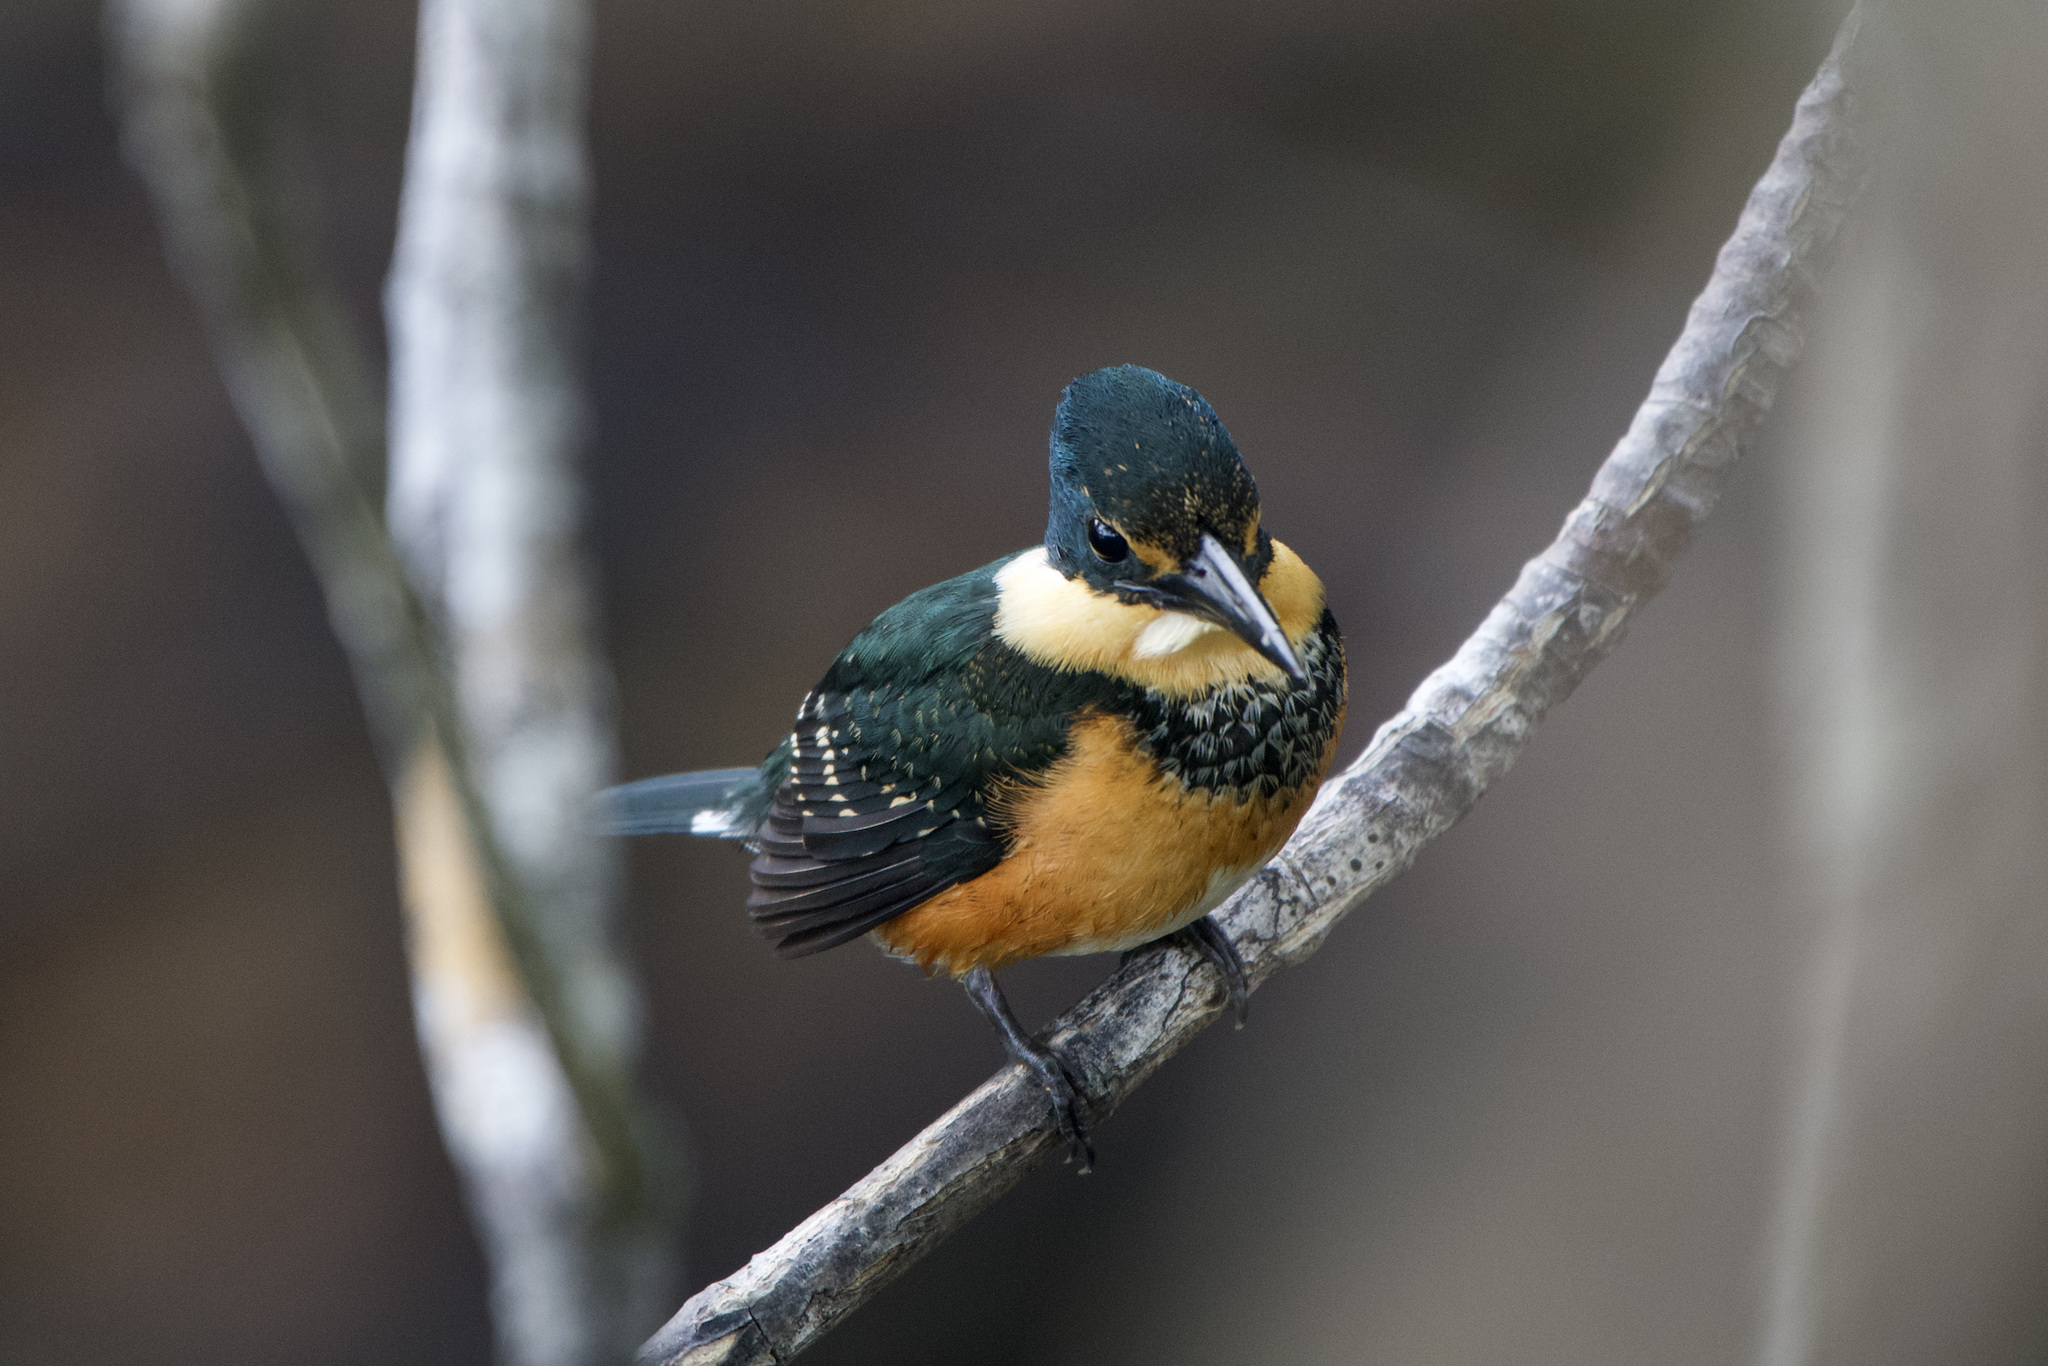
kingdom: Animalia
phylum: Chordata
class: Aves
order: Coraciiformes
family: Alcedinidae
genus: Chloroceryle
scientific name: Chloroceryle aenea
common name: American pygmy kingfisher
